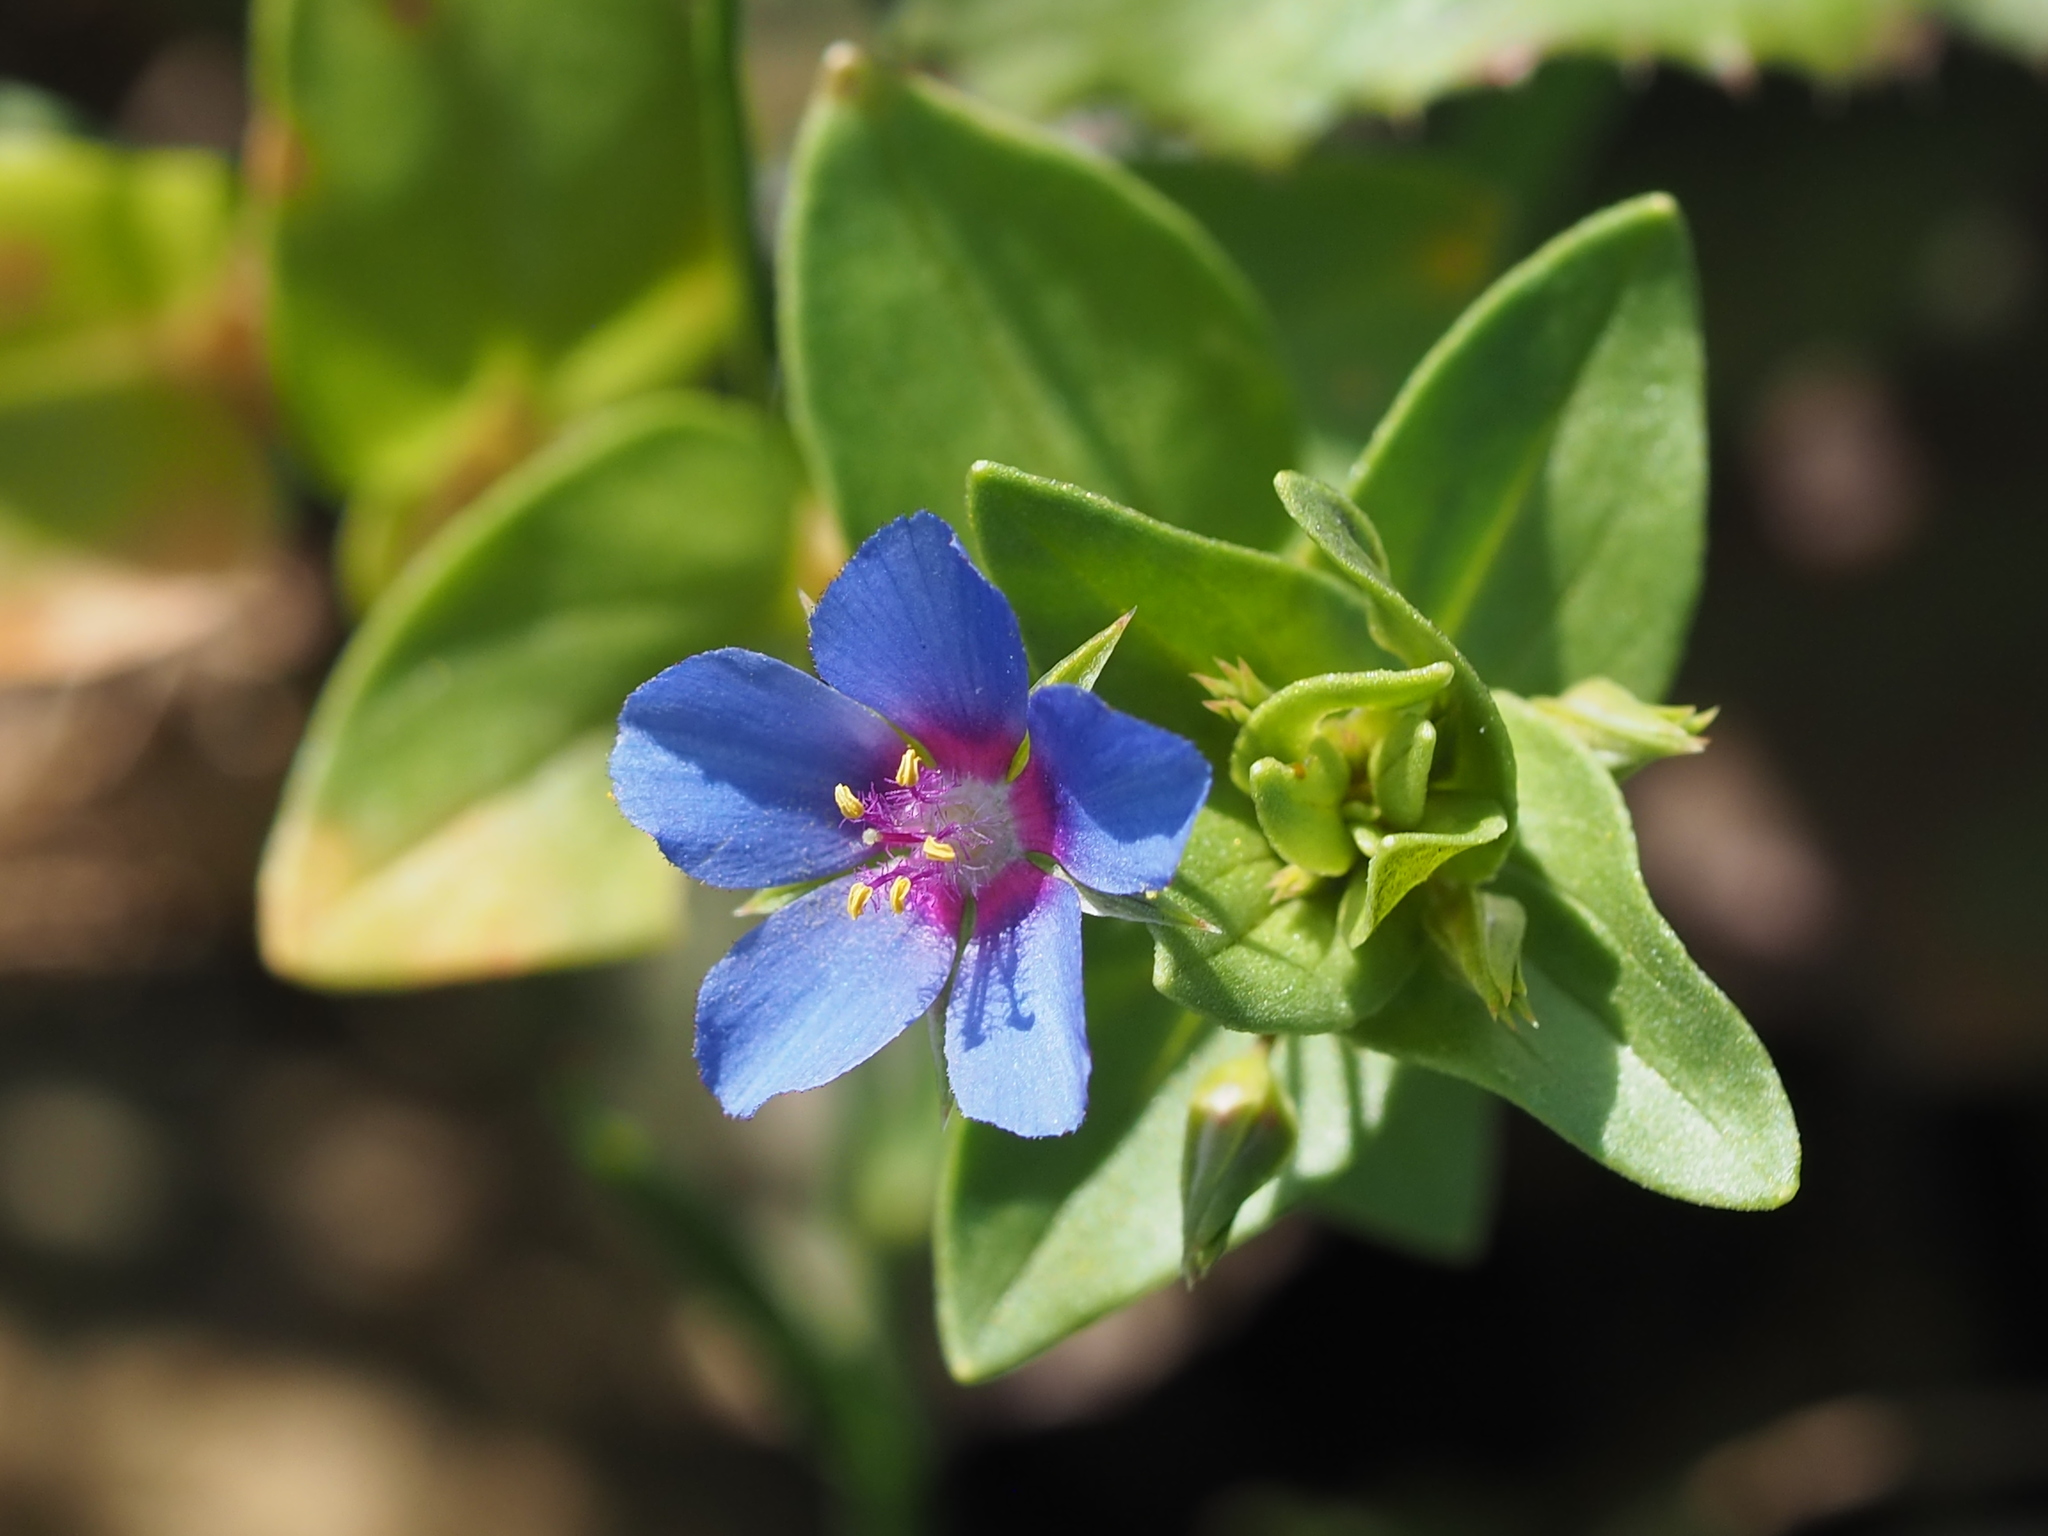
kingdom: Plantae
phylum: Tracheophyta
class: Magnoliopsida
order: Ericales
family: Primulaceae
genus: Lysimachia
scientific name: Lysimachia loeflingii
